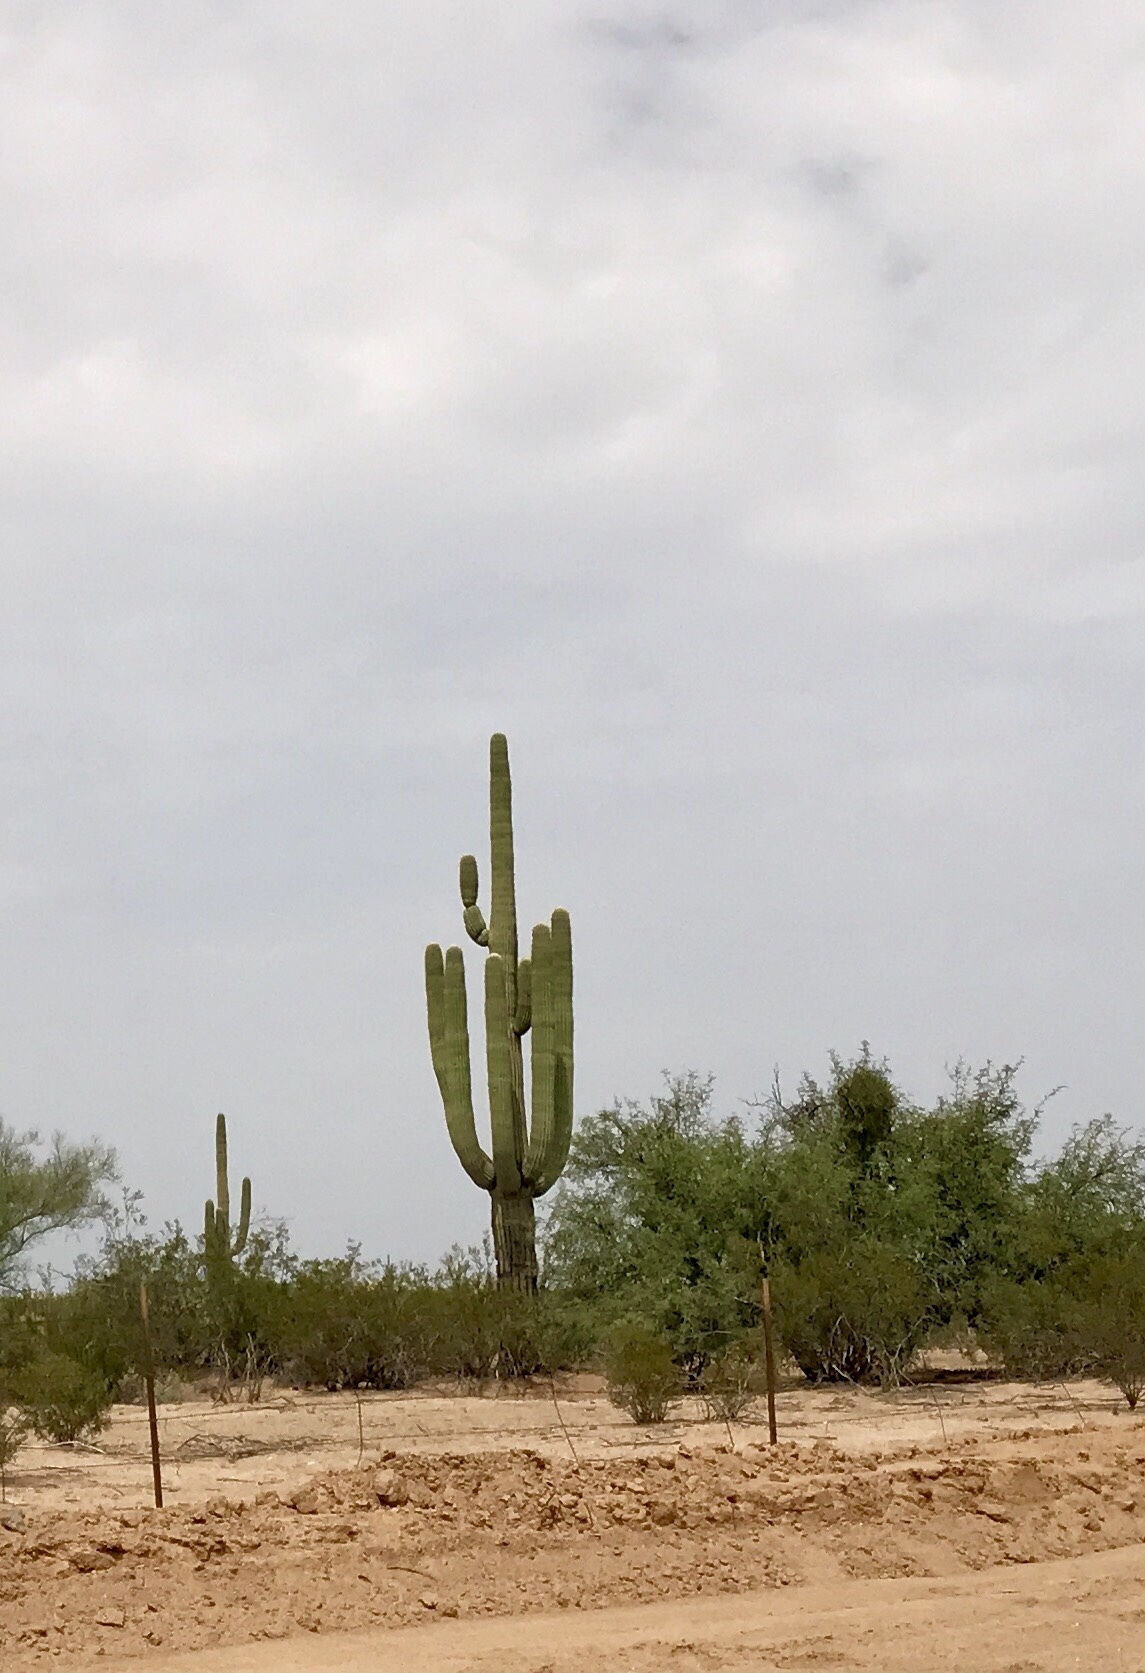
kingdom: Plantae
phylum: Tracheophyta
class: Magnoliopsida
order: Caryophyllales
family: Cactaceae
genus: Carnegiea
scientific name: Carnegiea gigantea
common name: Saguaro
